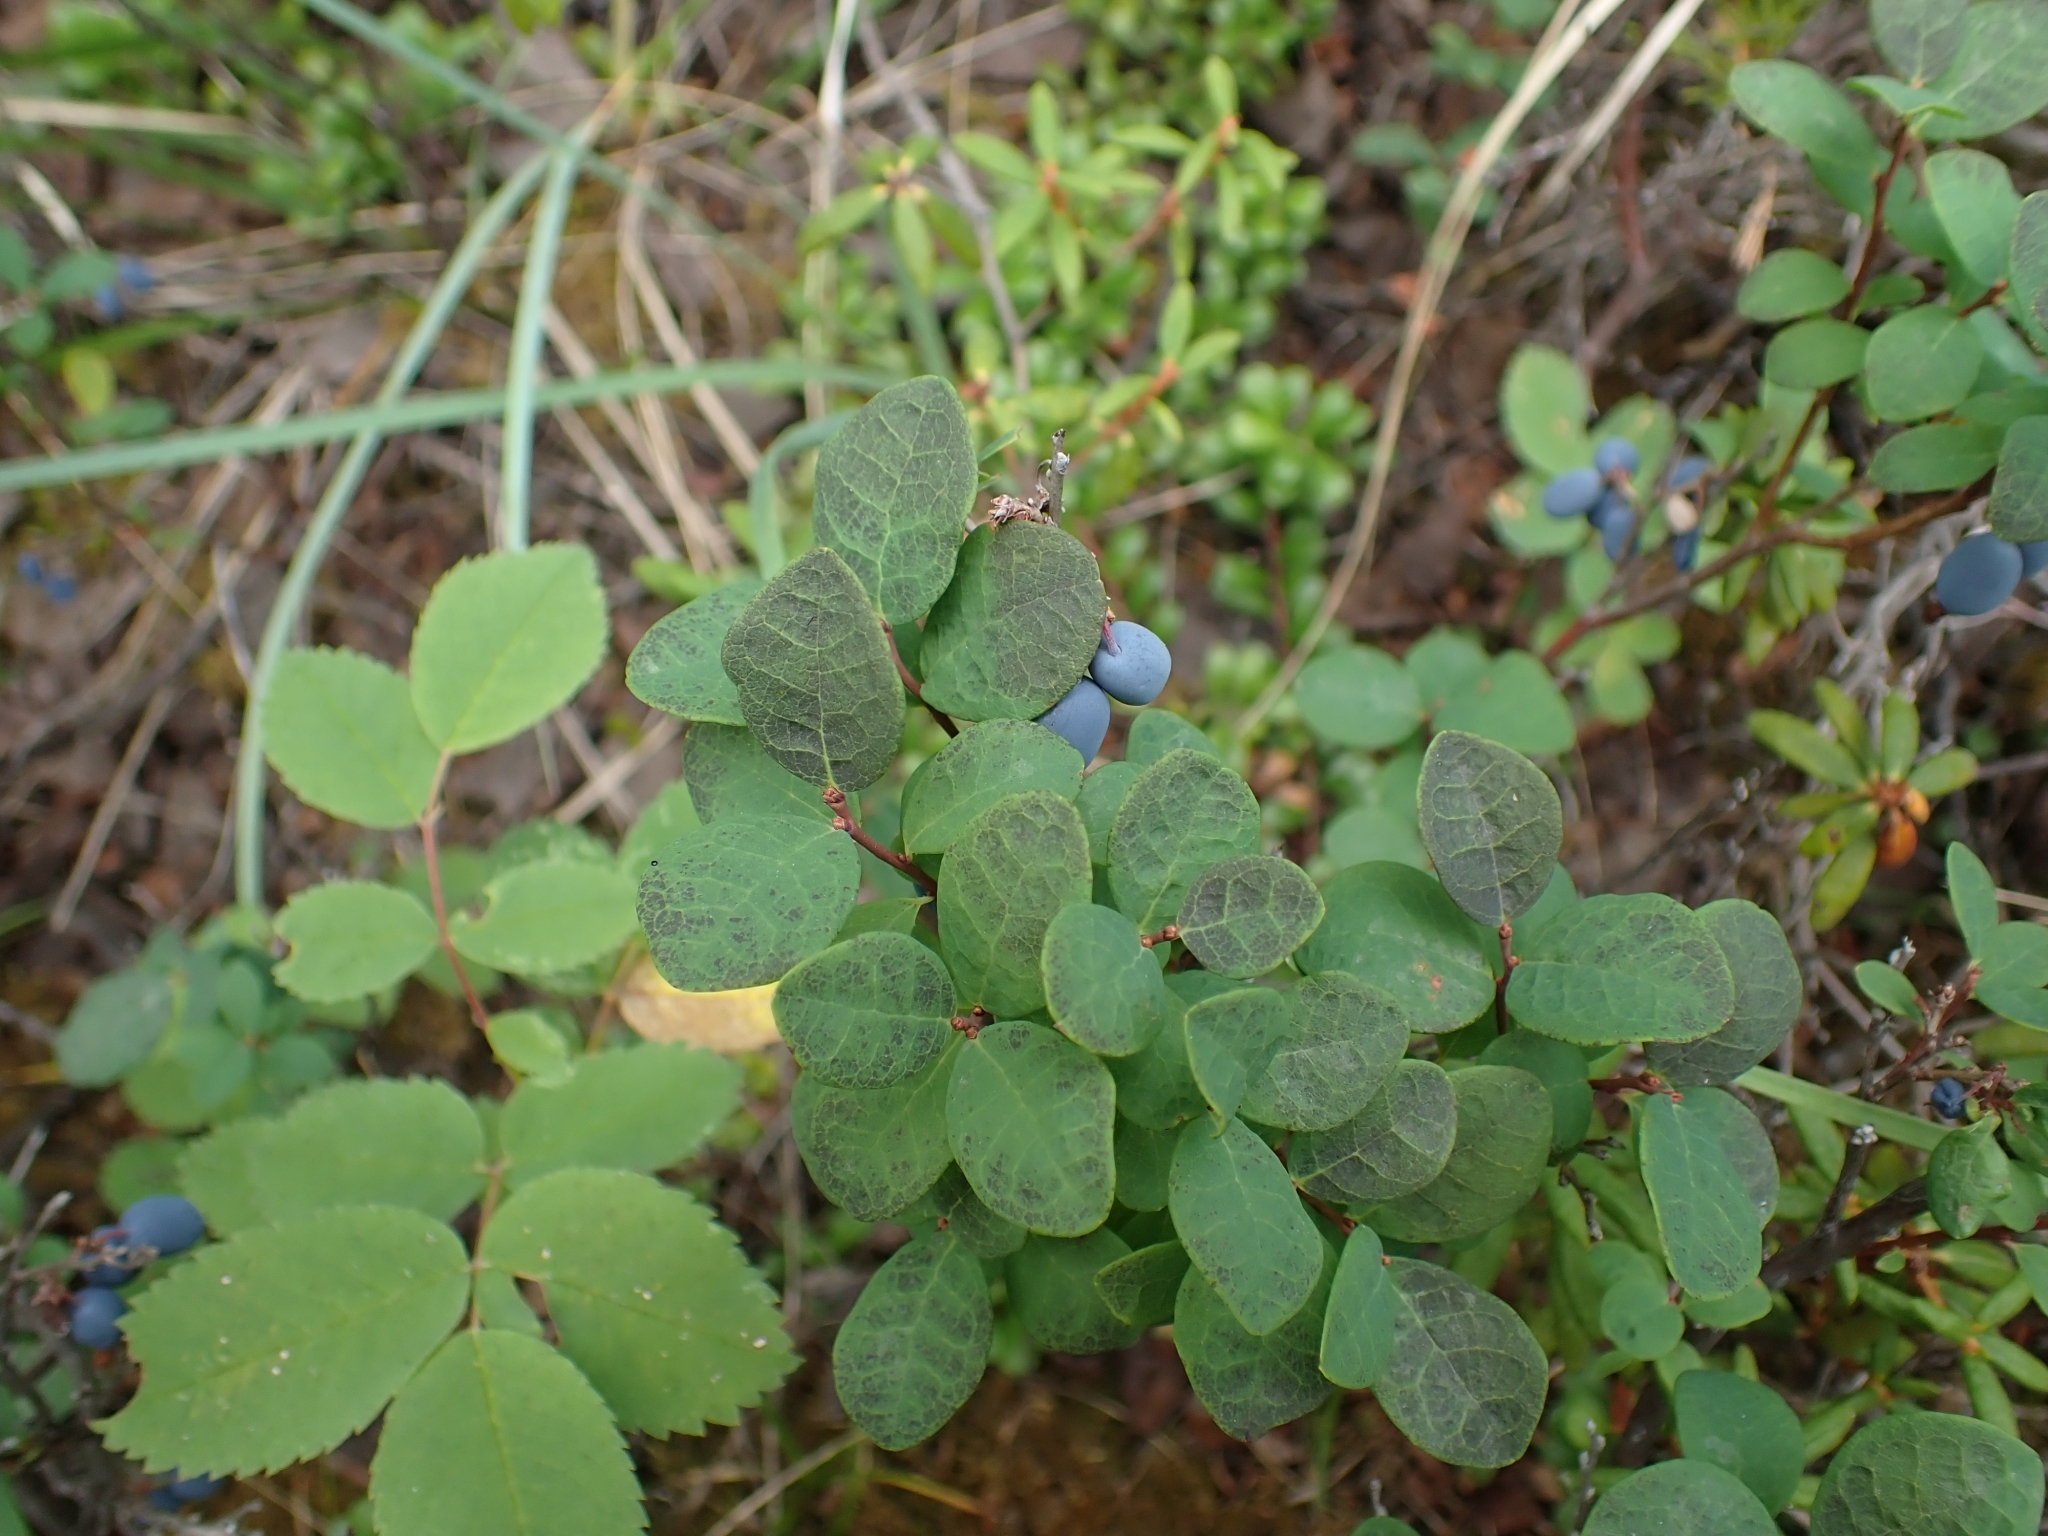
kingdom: Plantae
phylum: Tracheophyta
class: Magnoliopsida
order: Ericales
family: Ericaceae
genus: Vaccinium
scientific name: Vaccinium uliginosum
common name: Bog bilberry
